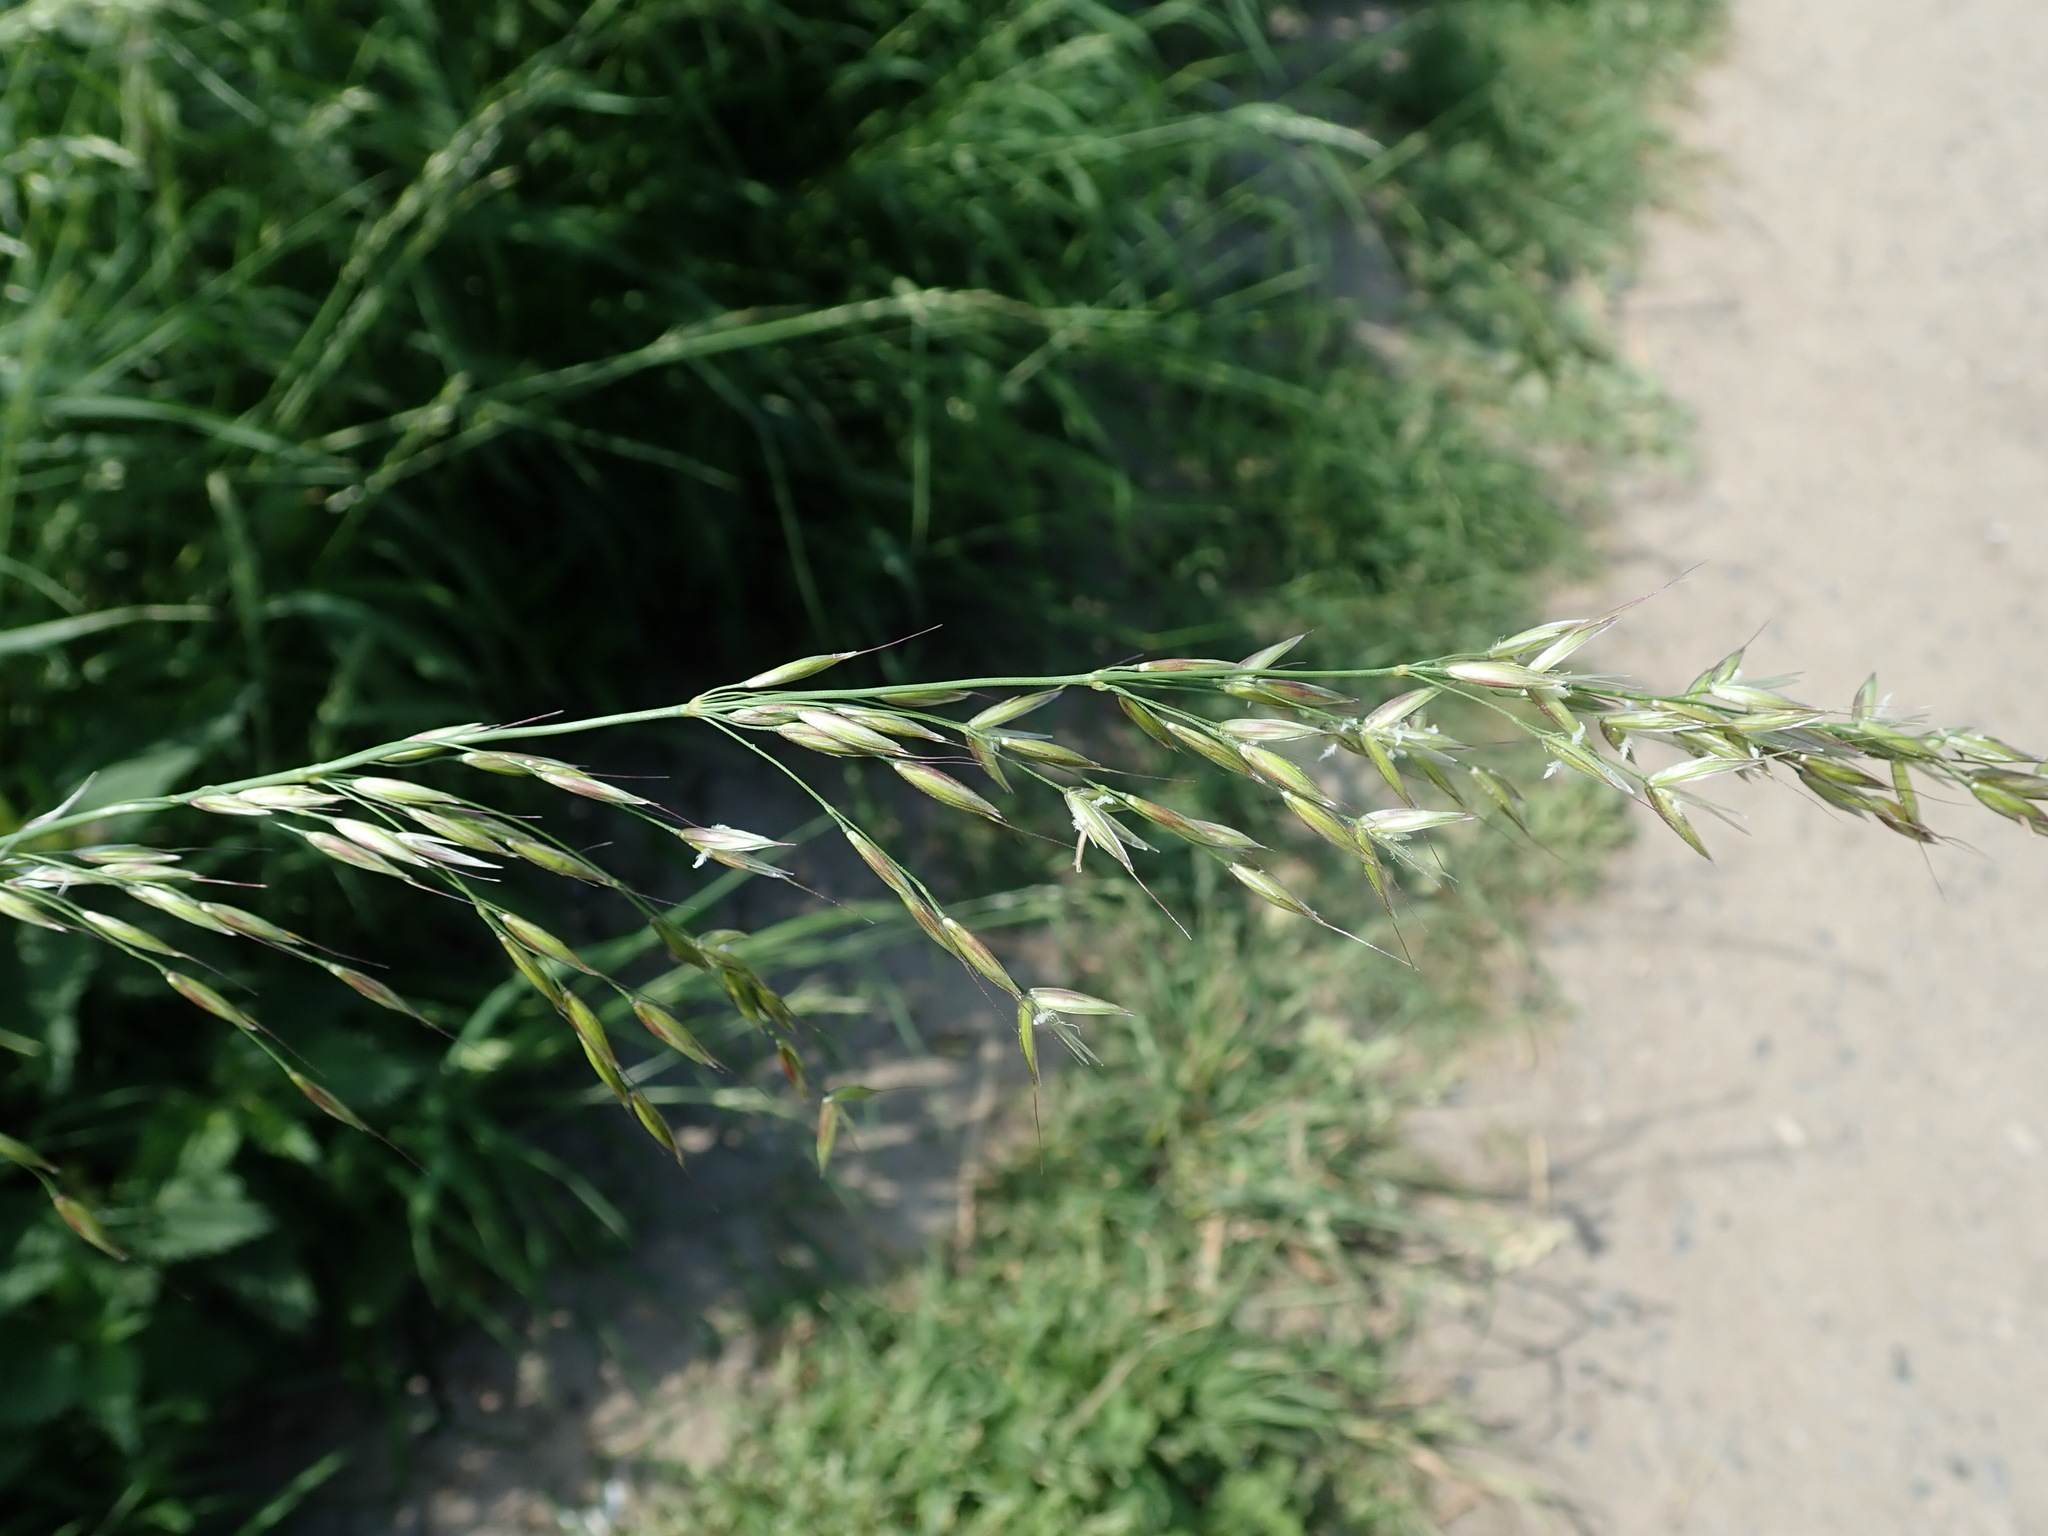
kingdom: Plantae
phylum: Tracheophyta
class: Liliopsida
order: Poales
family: Poaceae
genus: Arrhenatherum
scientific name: Arrhenatherum elatius
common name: Tall oatgrass
